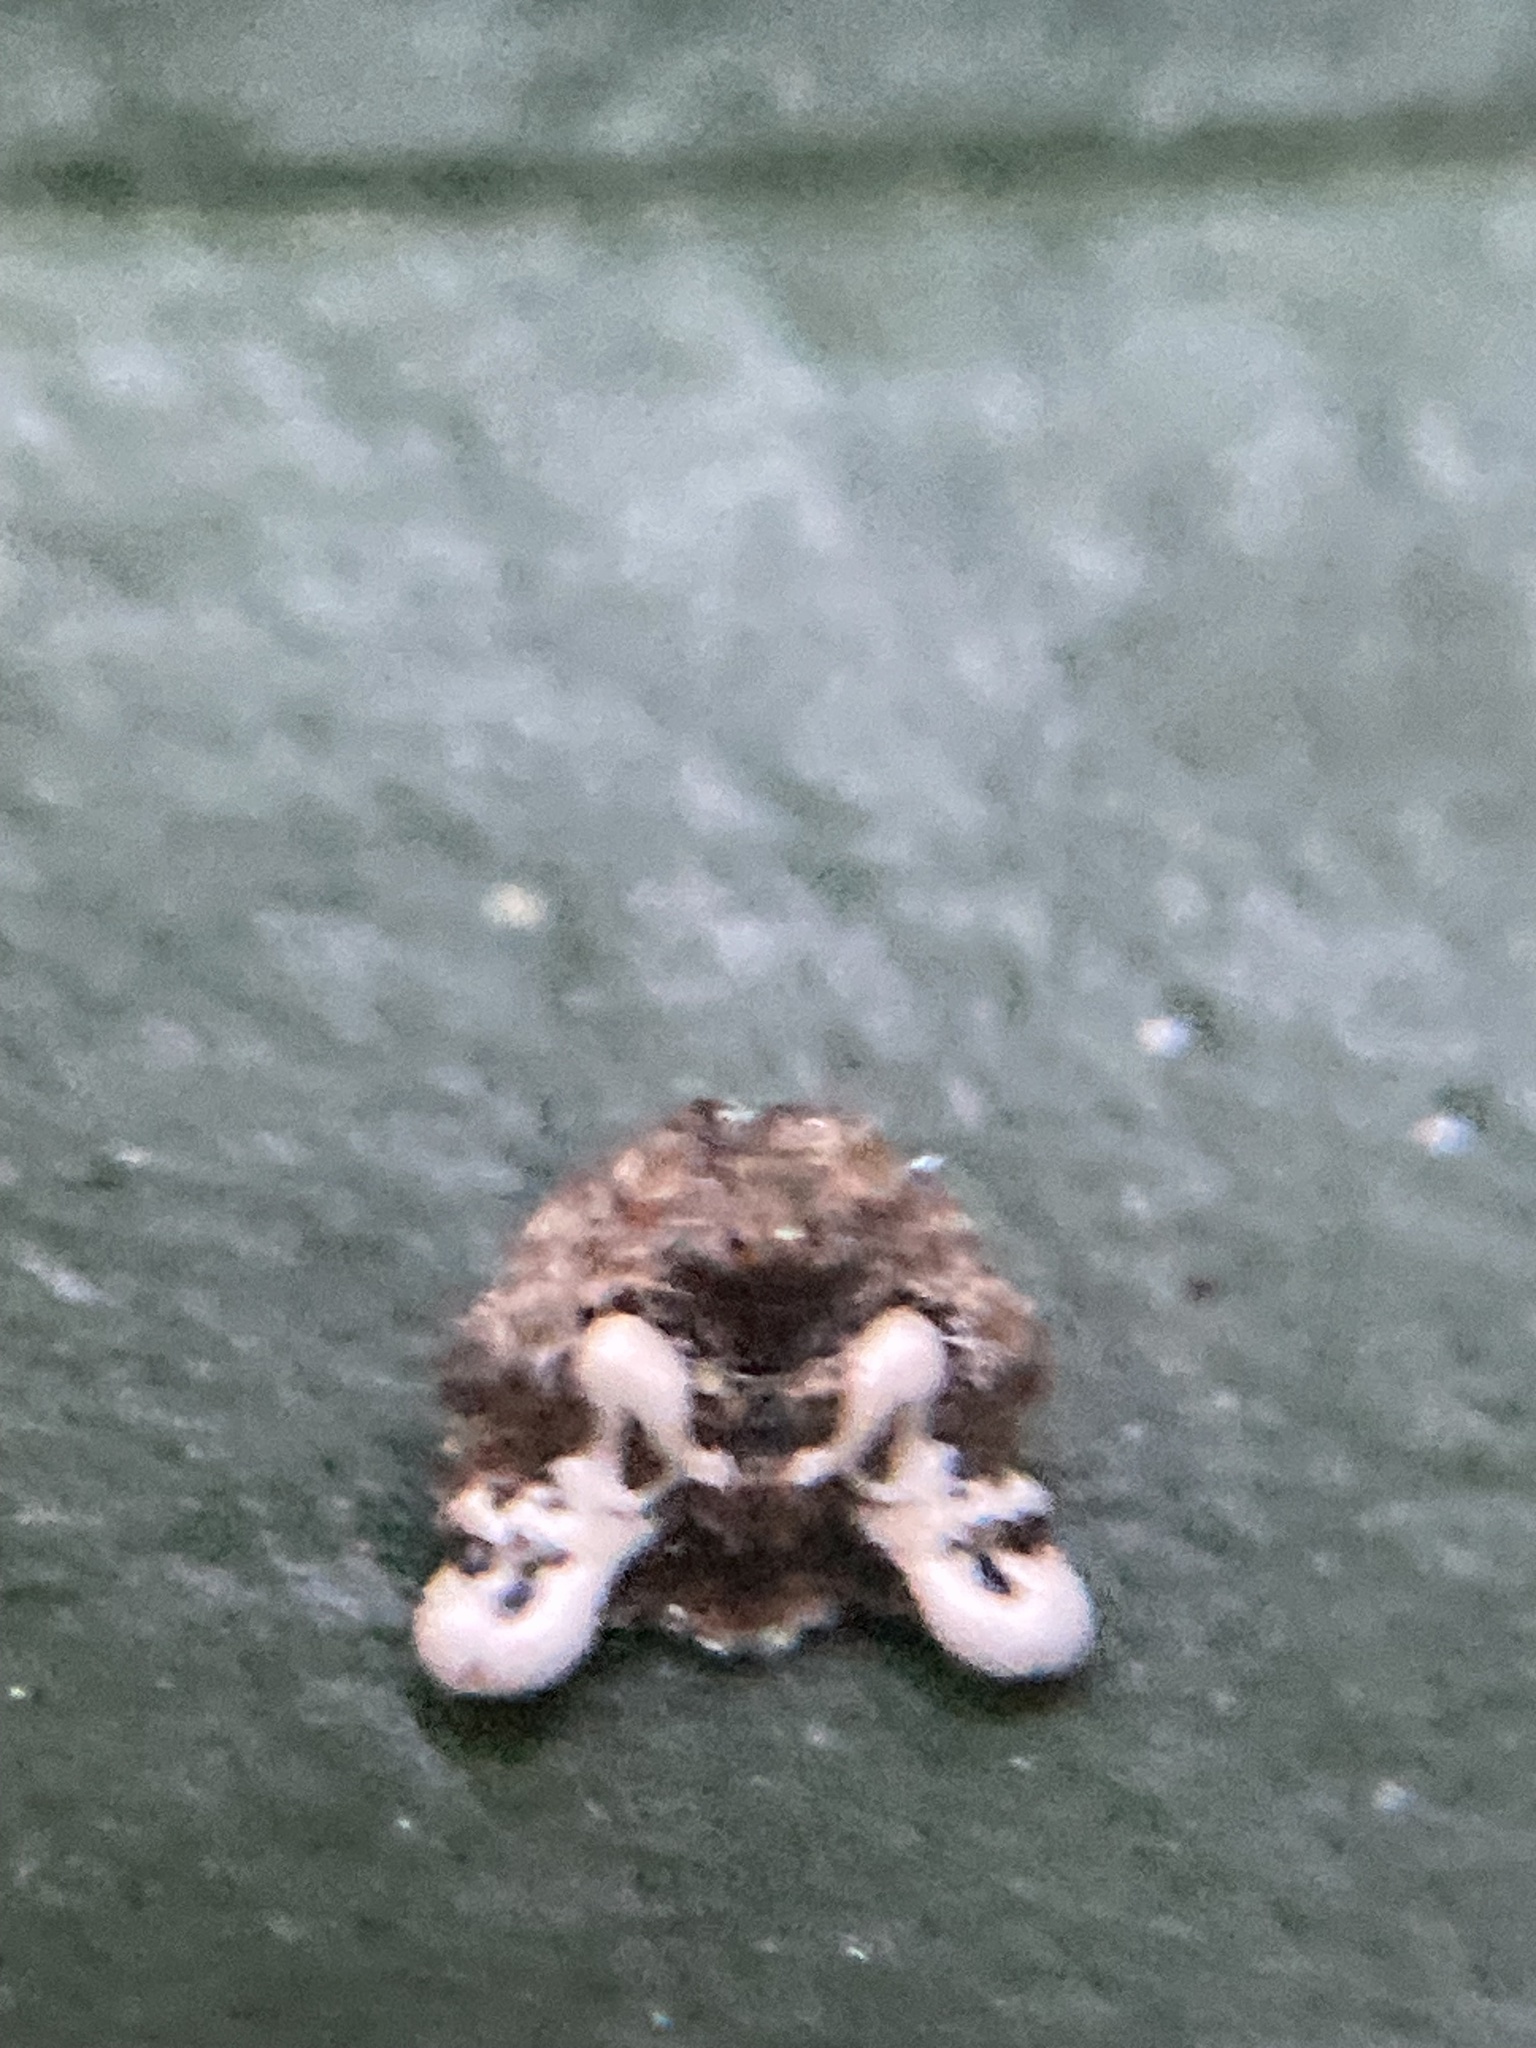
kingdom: Animalia
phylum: Arthropoda
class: Arachnida
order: Araneae
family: Arkyidae
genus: Arkys
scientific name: Arkys curtulus
